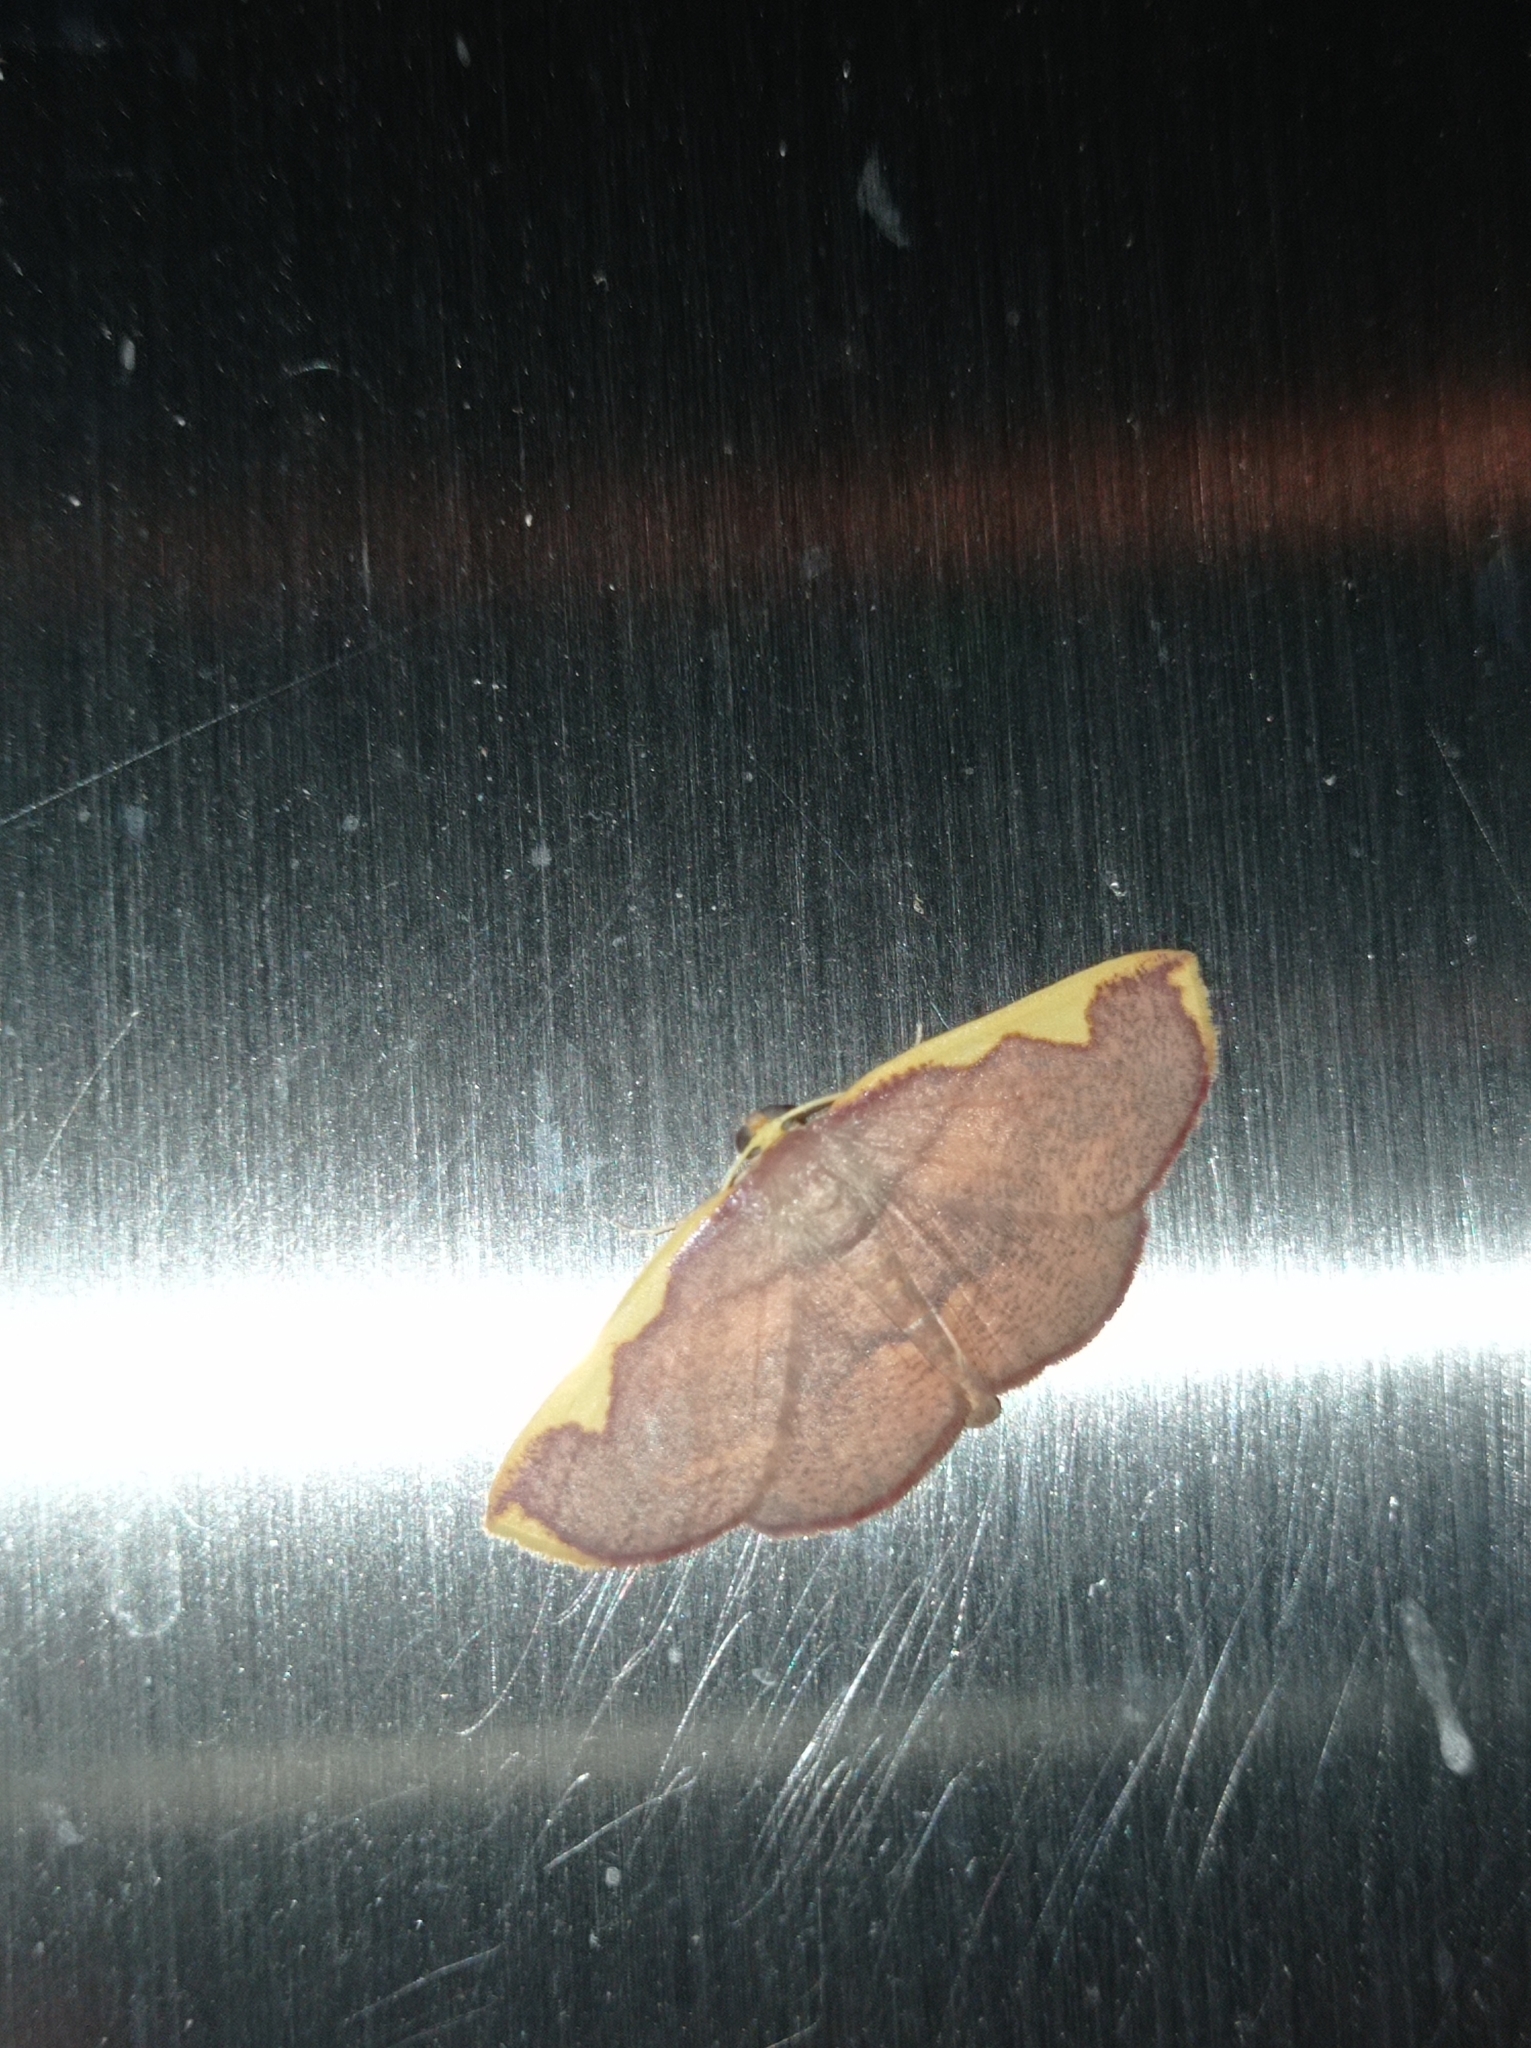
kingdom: Animalia
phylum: Arthropoda
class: Insecta
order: Lepidoptera
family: Geometridae
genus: Nothomiza
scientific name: Nothomiza flavicosta
